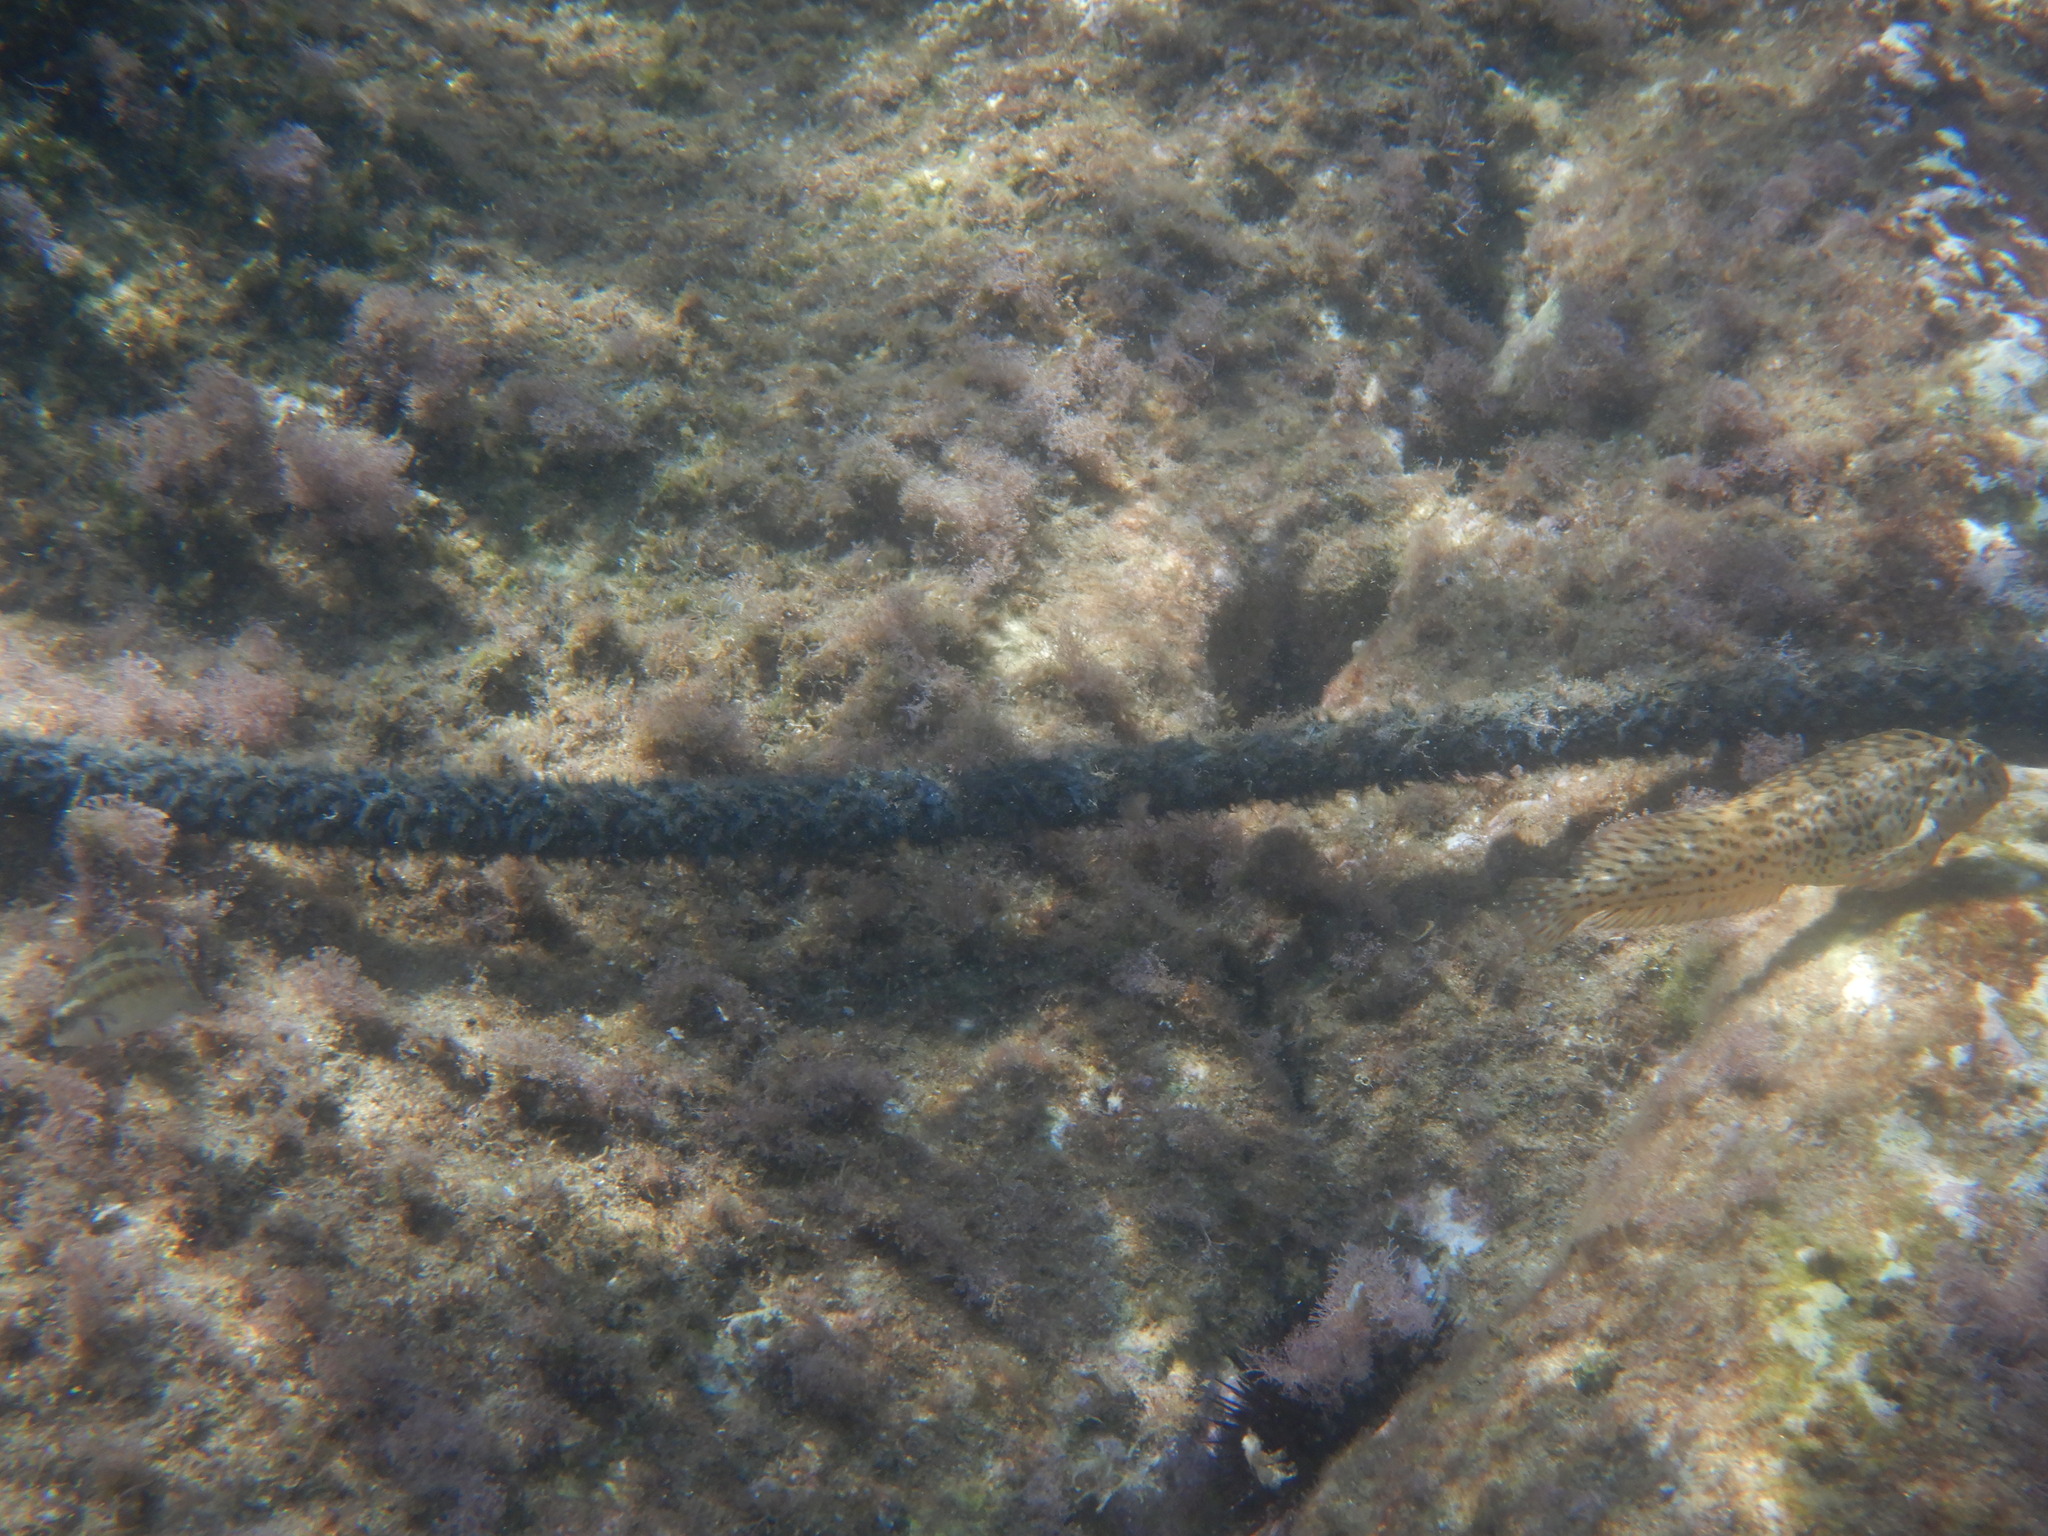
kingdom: Animalia
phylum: Chordata
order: Perciformes
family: Blenniidae
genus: Parablennius
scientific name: Parablennius sanguinolentus
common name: Black sea blenny
